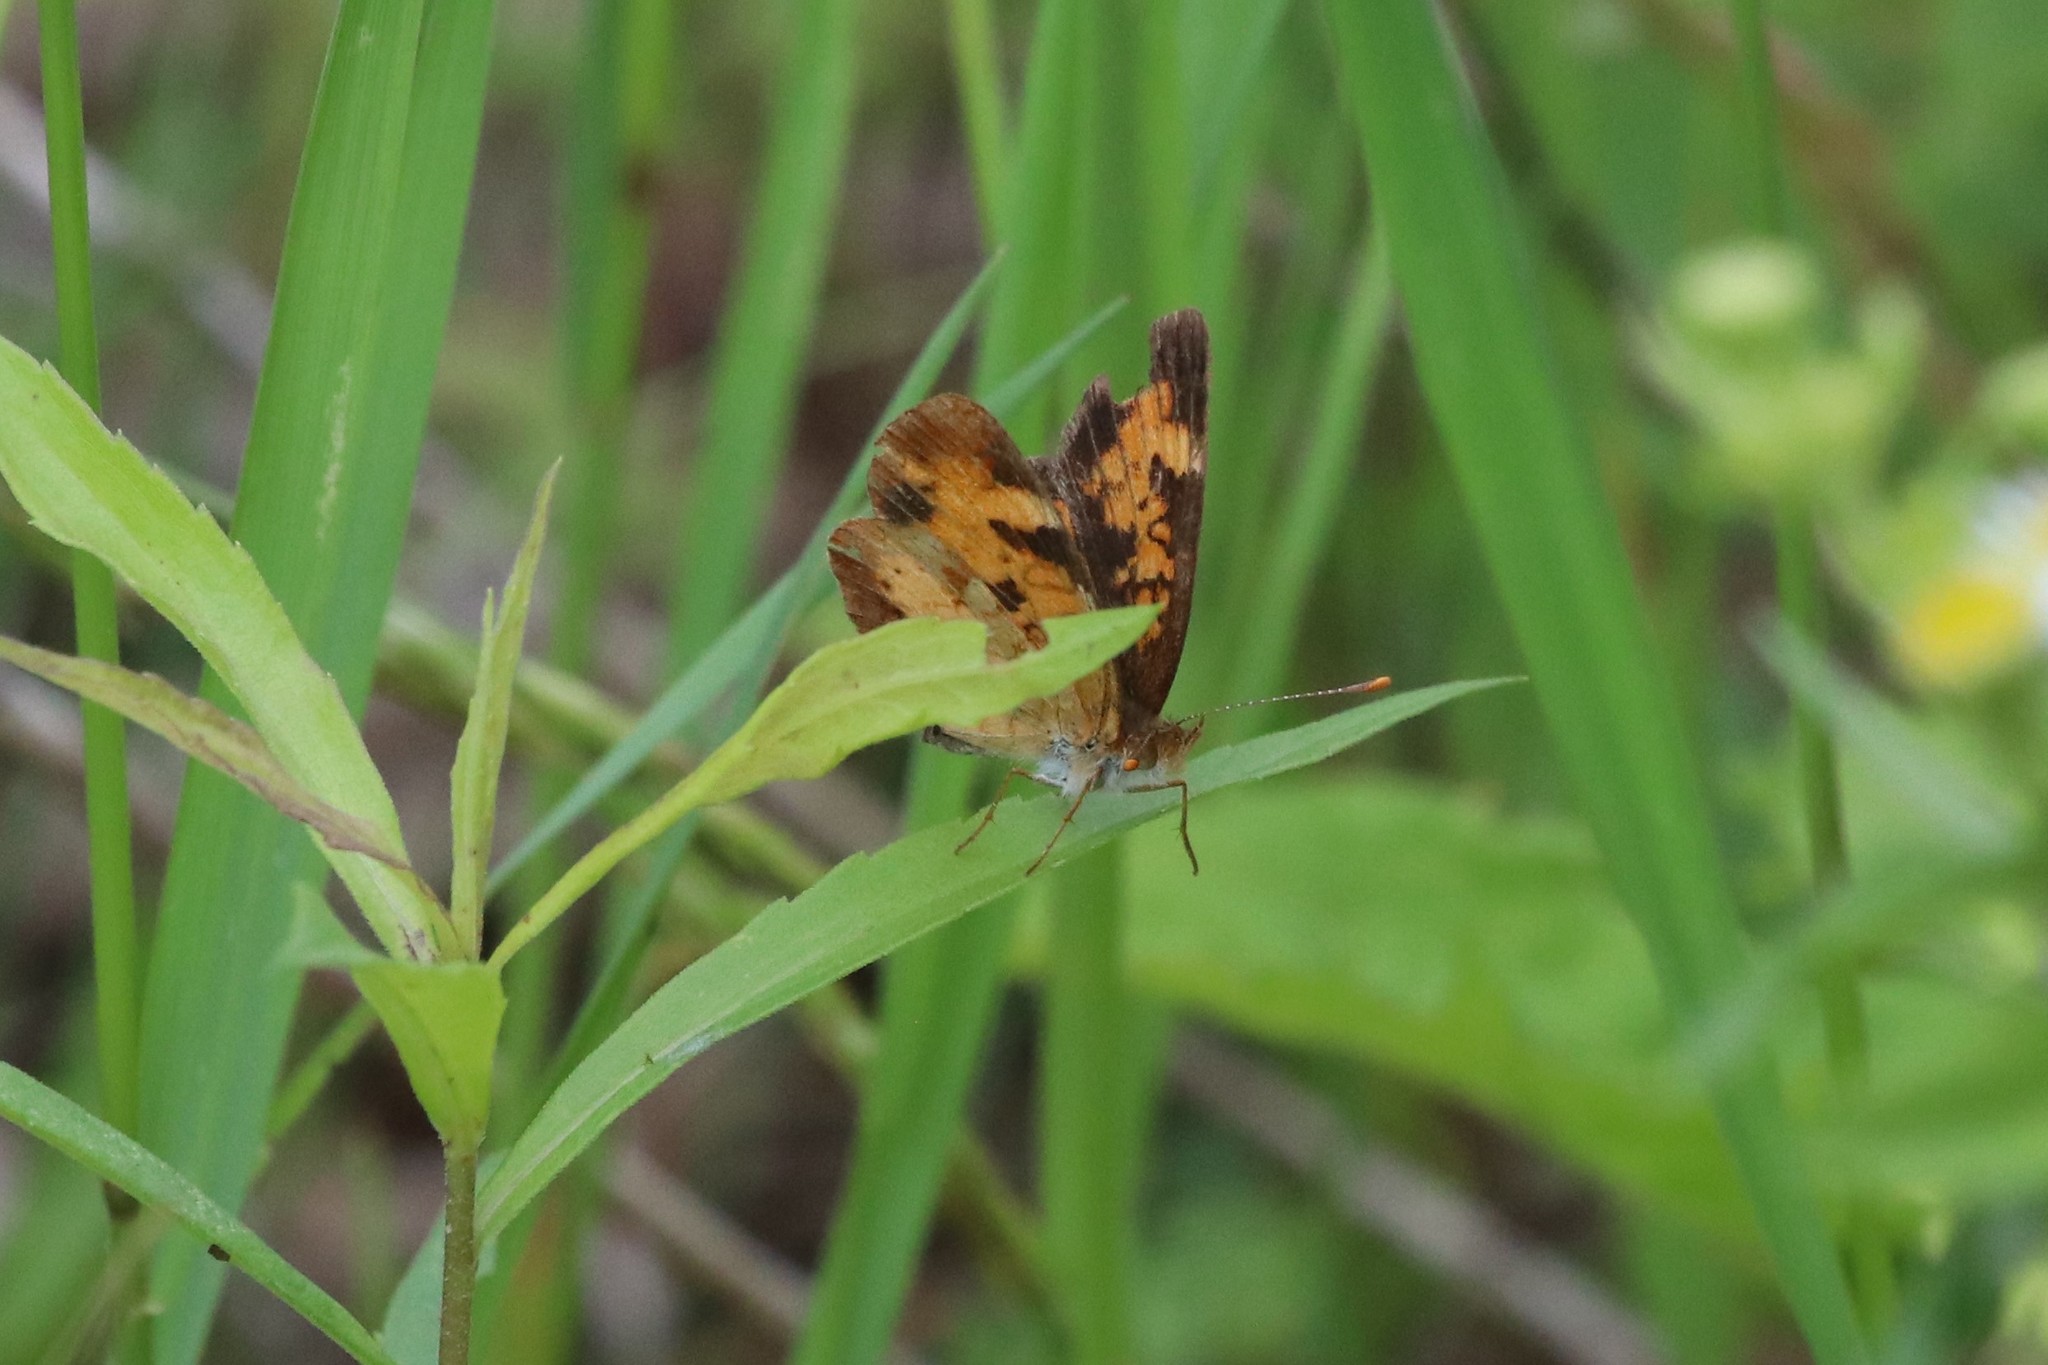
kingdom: Animalia
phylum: Arthropoda
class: Insecta
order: Lepidoptera
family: Nymphalidae
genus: Phyciodes
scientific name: Phyciodes tharos
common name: Pearl crescent
